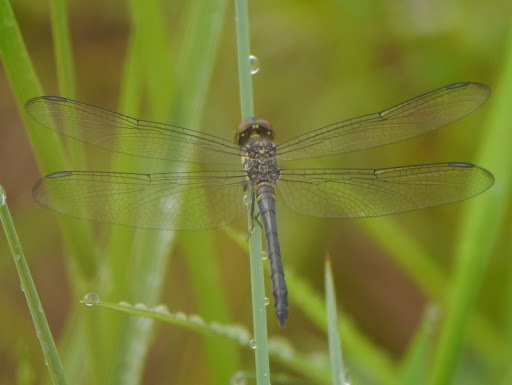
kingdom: Animalia
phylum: Arthropoda
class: Insecta
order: Odonata
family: Libellulidae
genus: Chalcostephia
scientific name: Chalcostephia flavifrons
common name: Inspector
